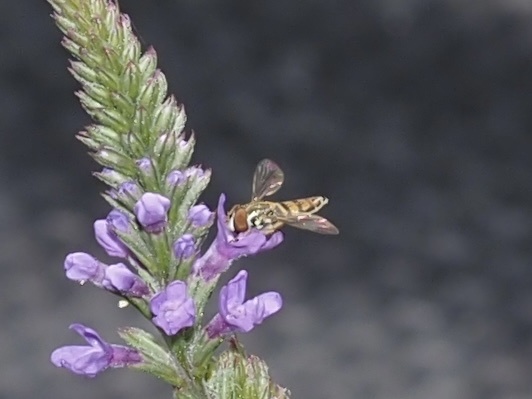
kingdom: Animalia
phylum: Arthropoda
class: Insecta
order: Diptera
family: Syrphidae
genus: Toxomerus
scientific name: Toxomerus marginatus
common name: Syrphid fly
